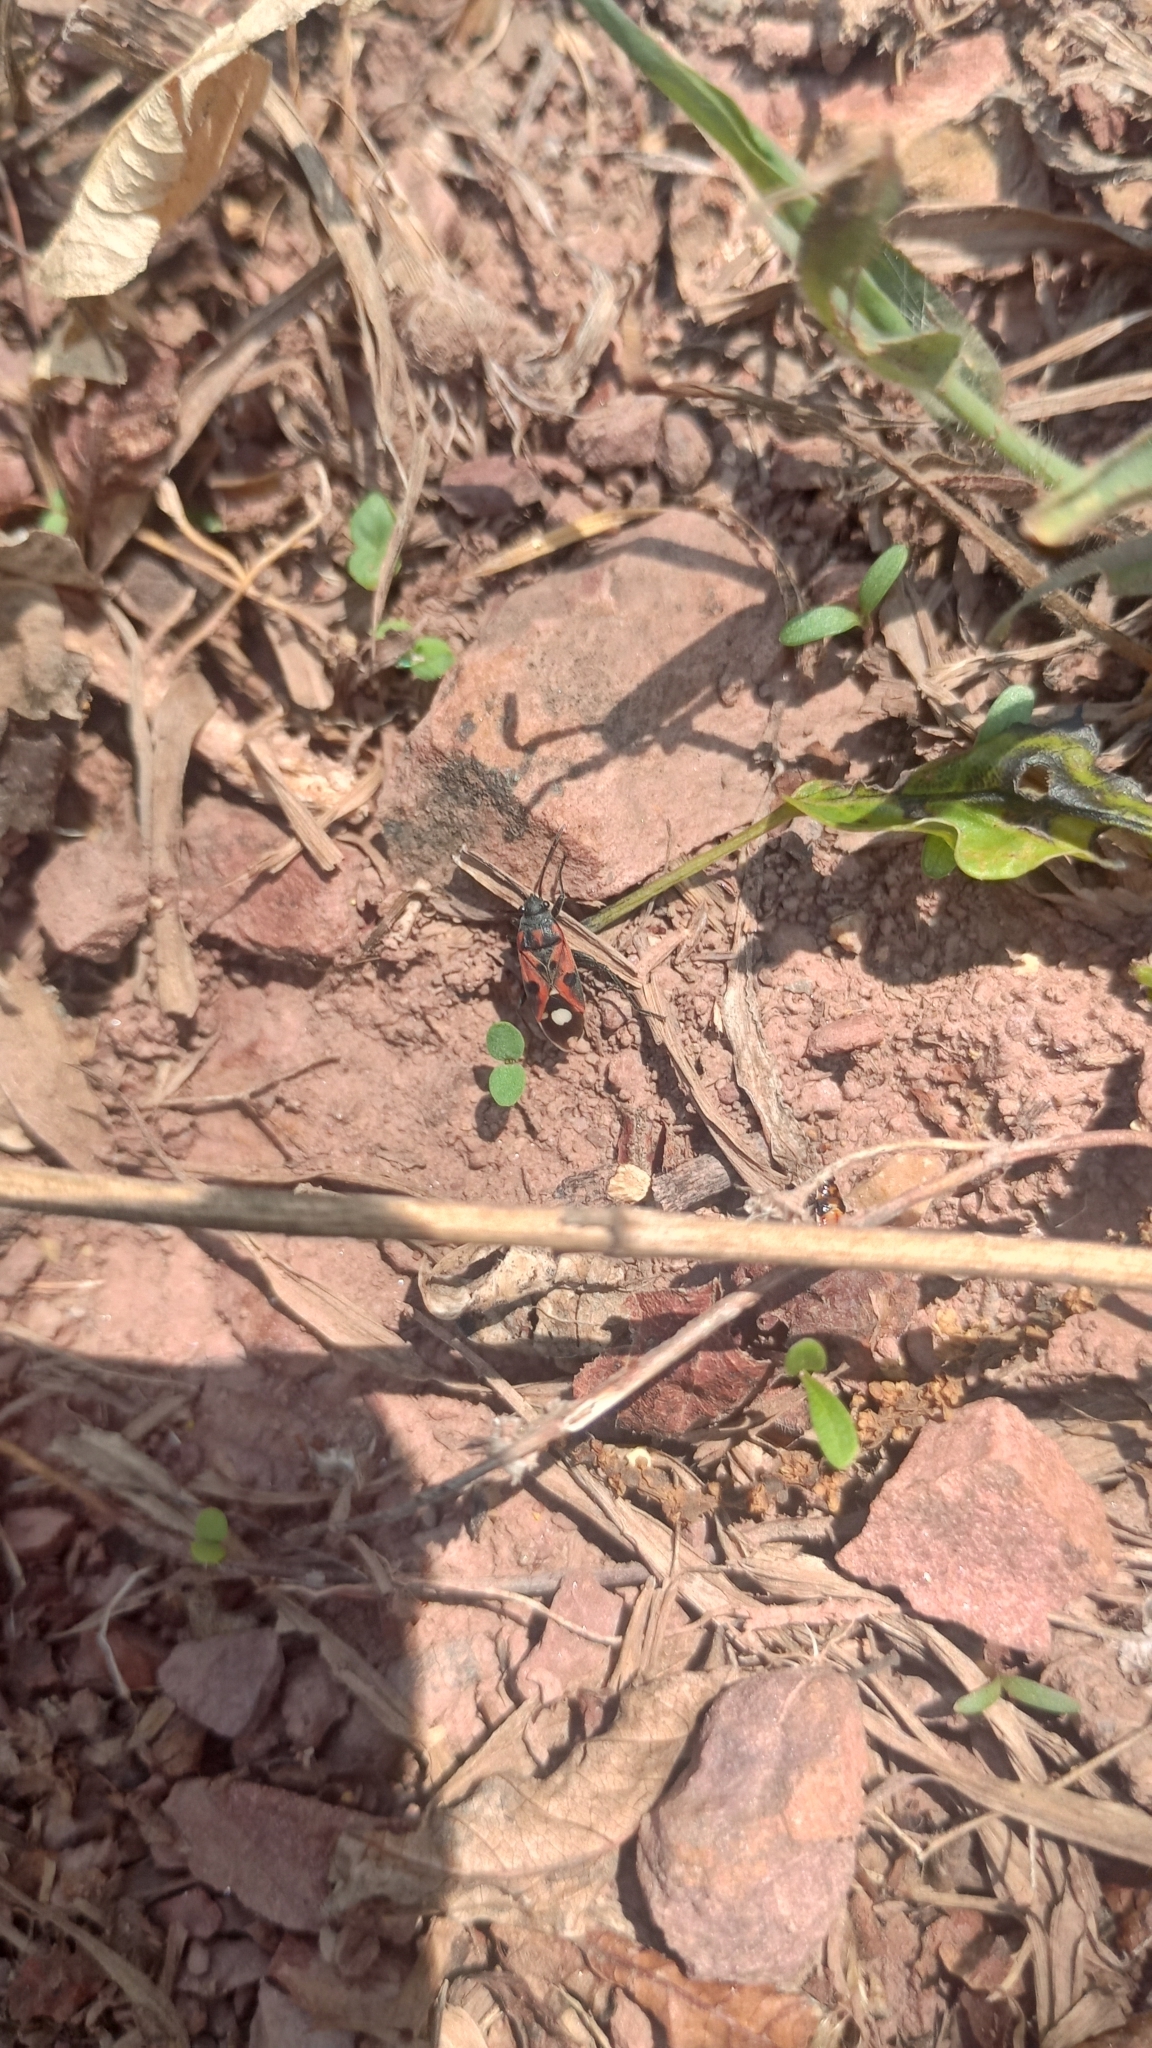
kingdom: Animalia
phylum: Arthropoda
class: Insecta
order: Hemiptera
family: Lygaeidae
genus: Lygaeus
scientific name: Lygaeus alboornatus
